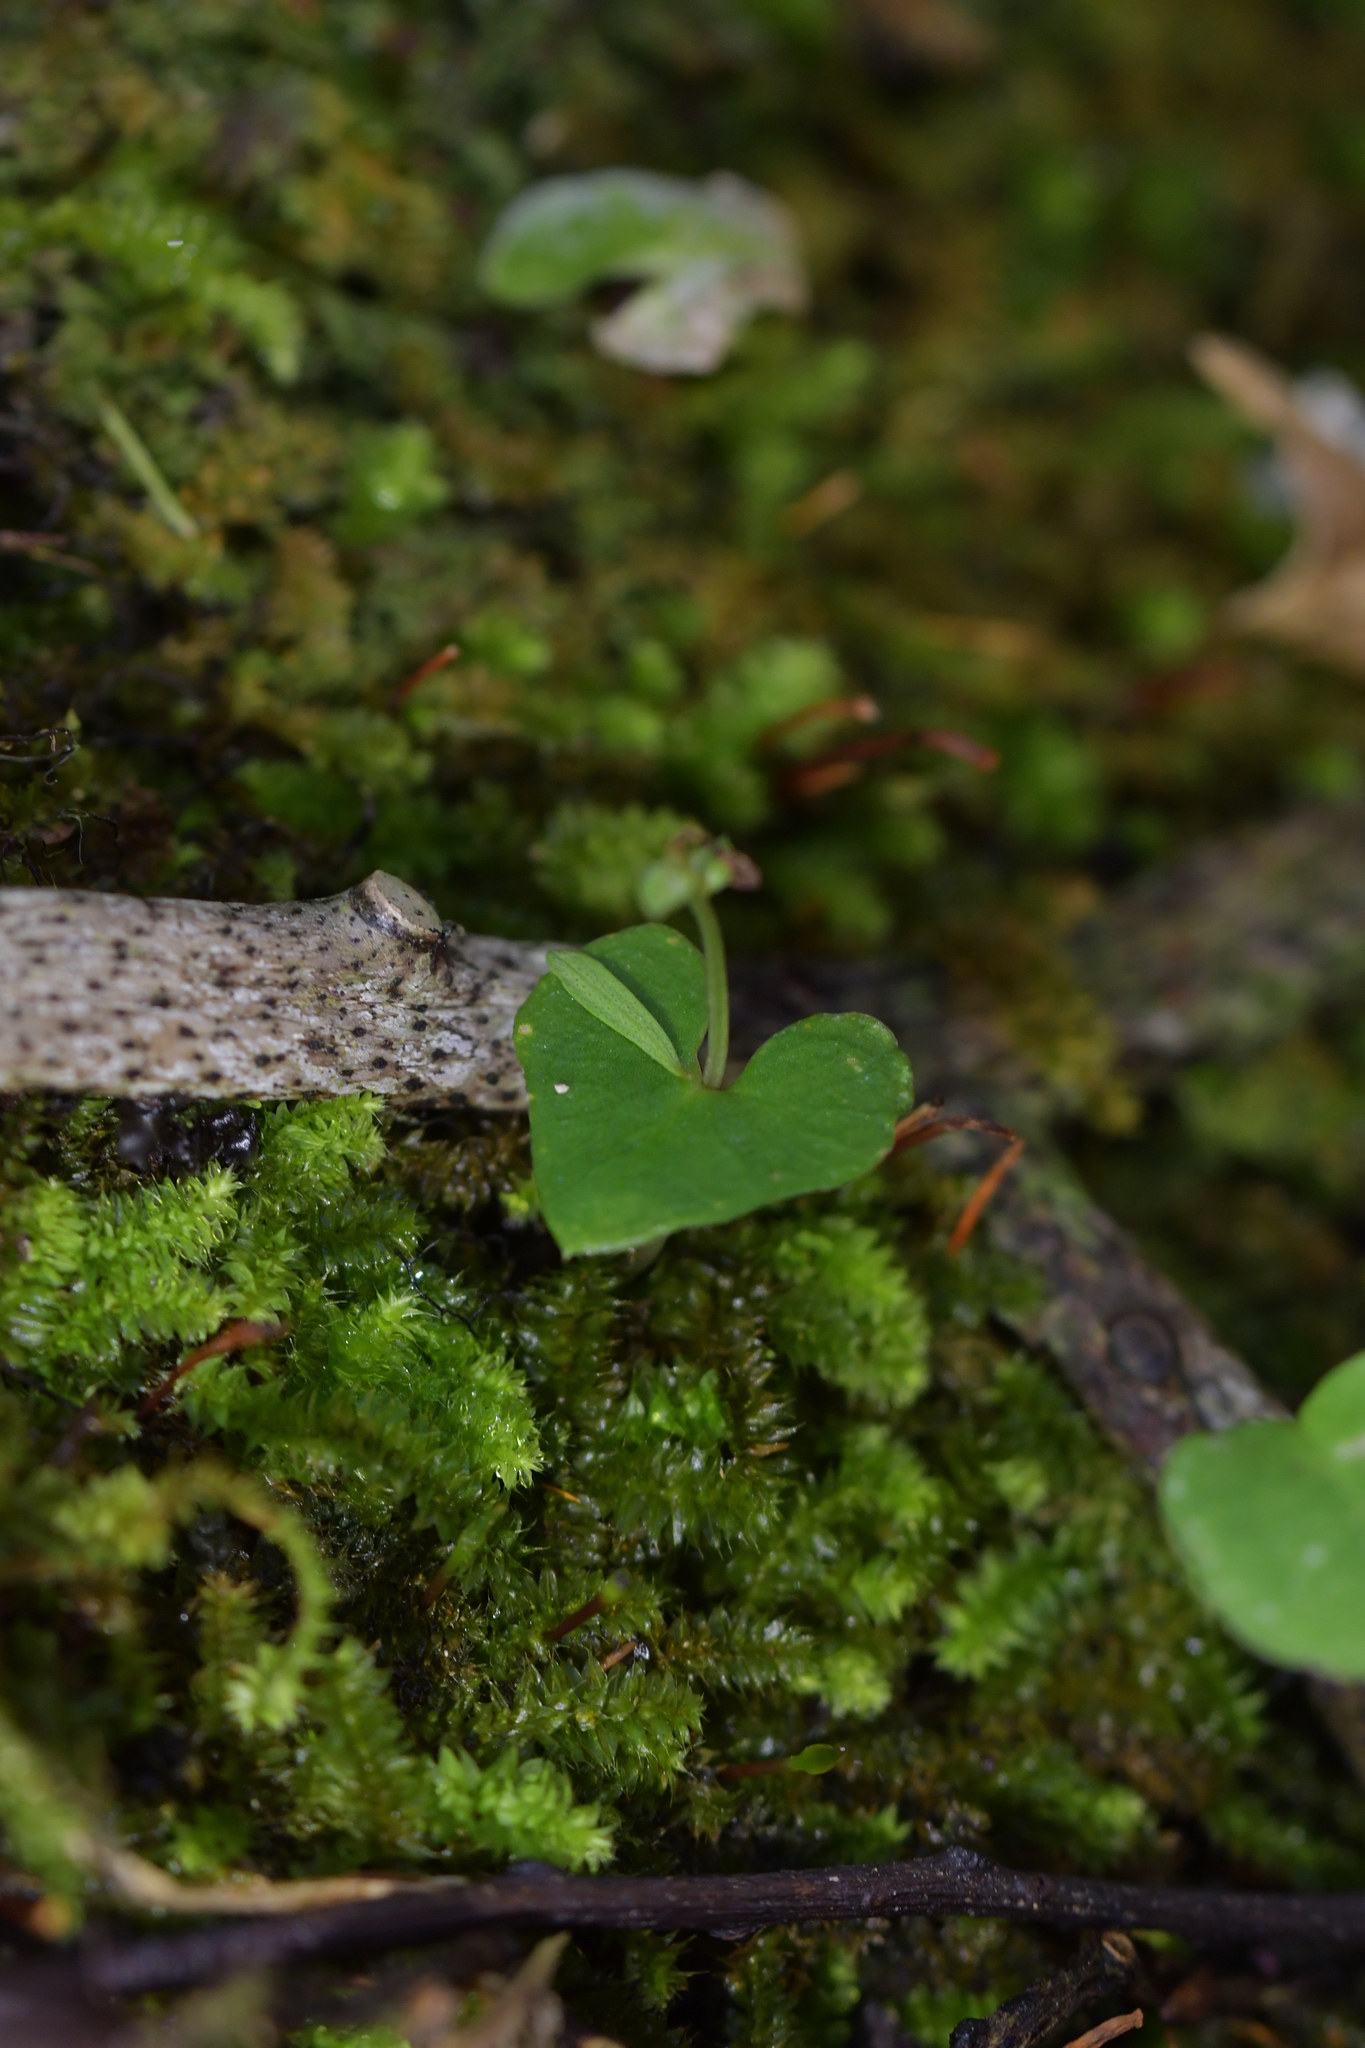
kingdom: Plantae
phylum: Tracheophyta
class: Liliopsida
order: Asparagales
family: Orchidaceae
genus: Acianthus
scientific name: Acianthus sinclairii
